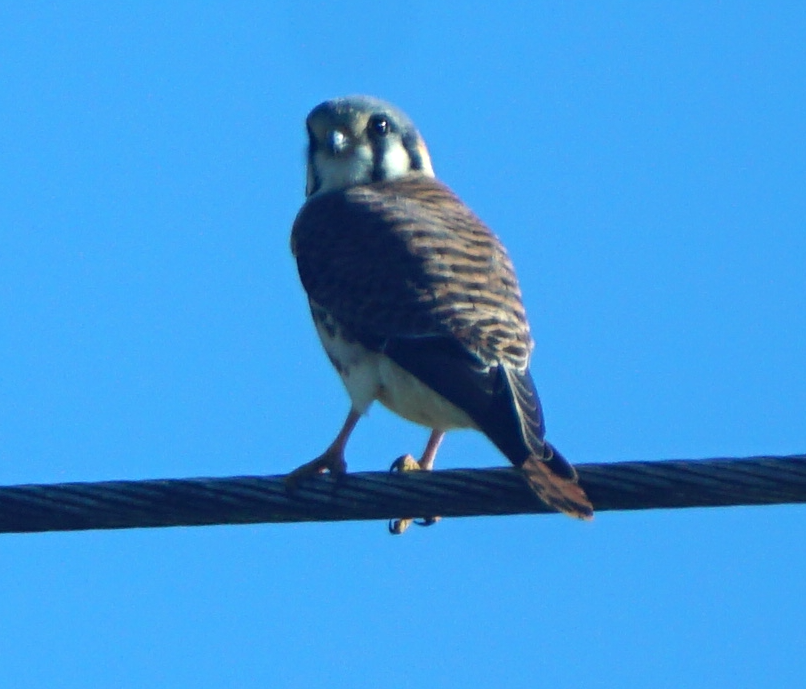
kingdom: Animalia
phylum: Chordata
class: Aves
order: Falconiformes
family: Falconidae
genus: Falco
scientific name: Falco sparverius
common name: American kestrel
